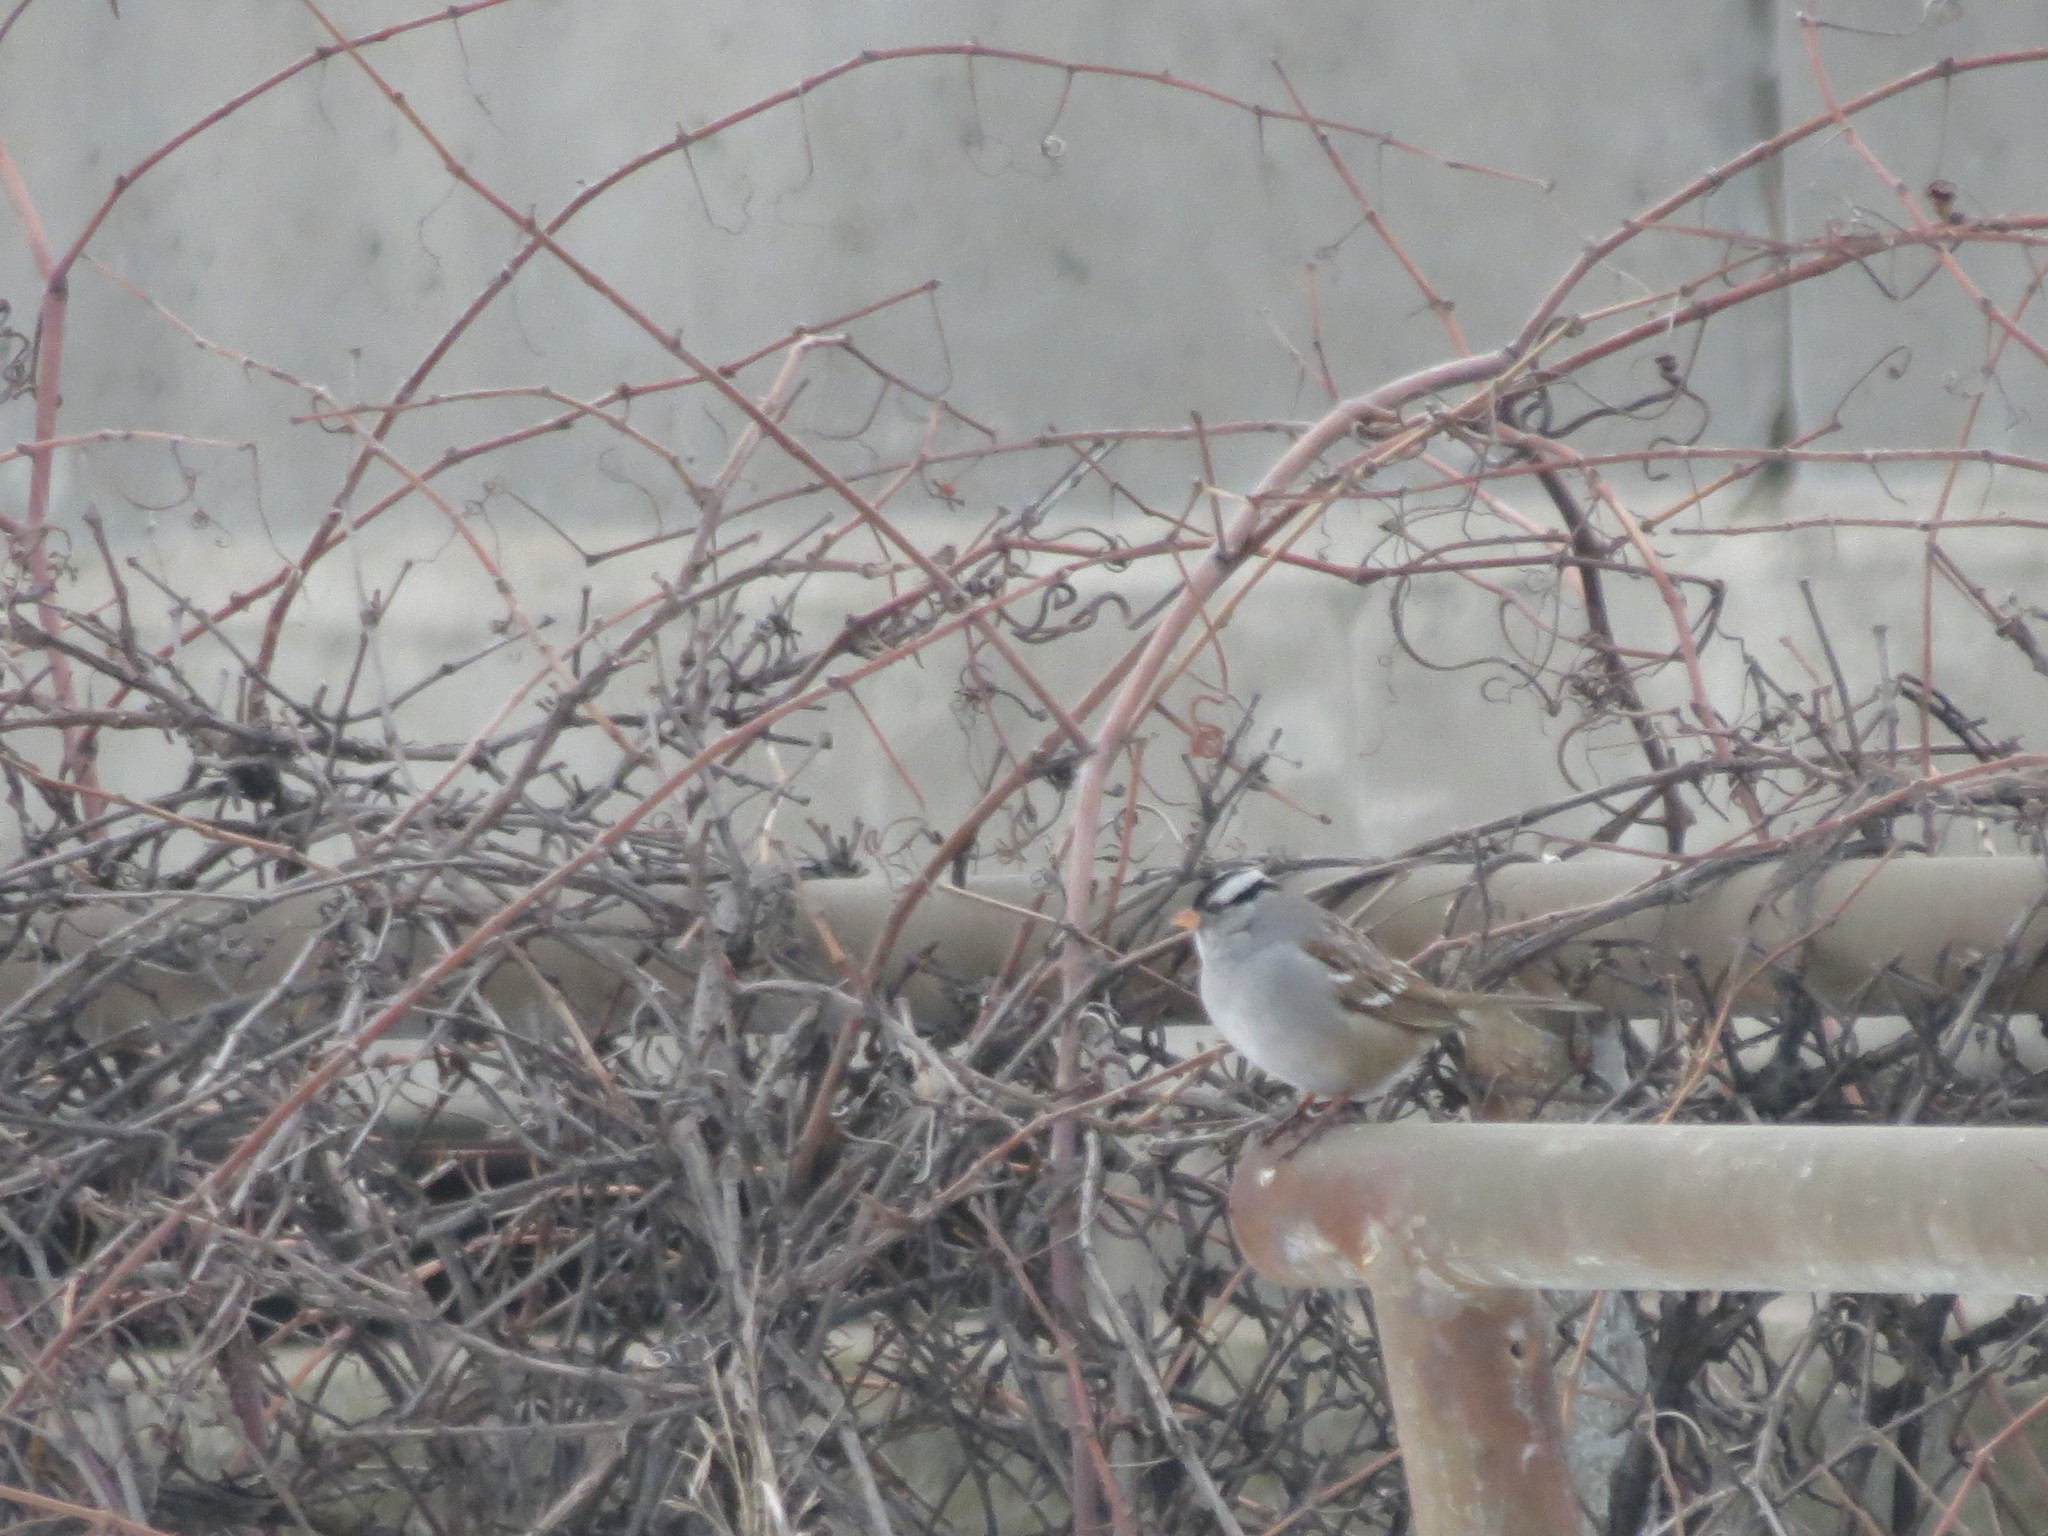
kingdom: Animalia
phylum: Chordata
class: Aves
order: Passeriformes
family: Passerellidae
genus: Zonotrichia
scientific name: Zonotrichia leucophrys
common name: White-crowned sparrow
